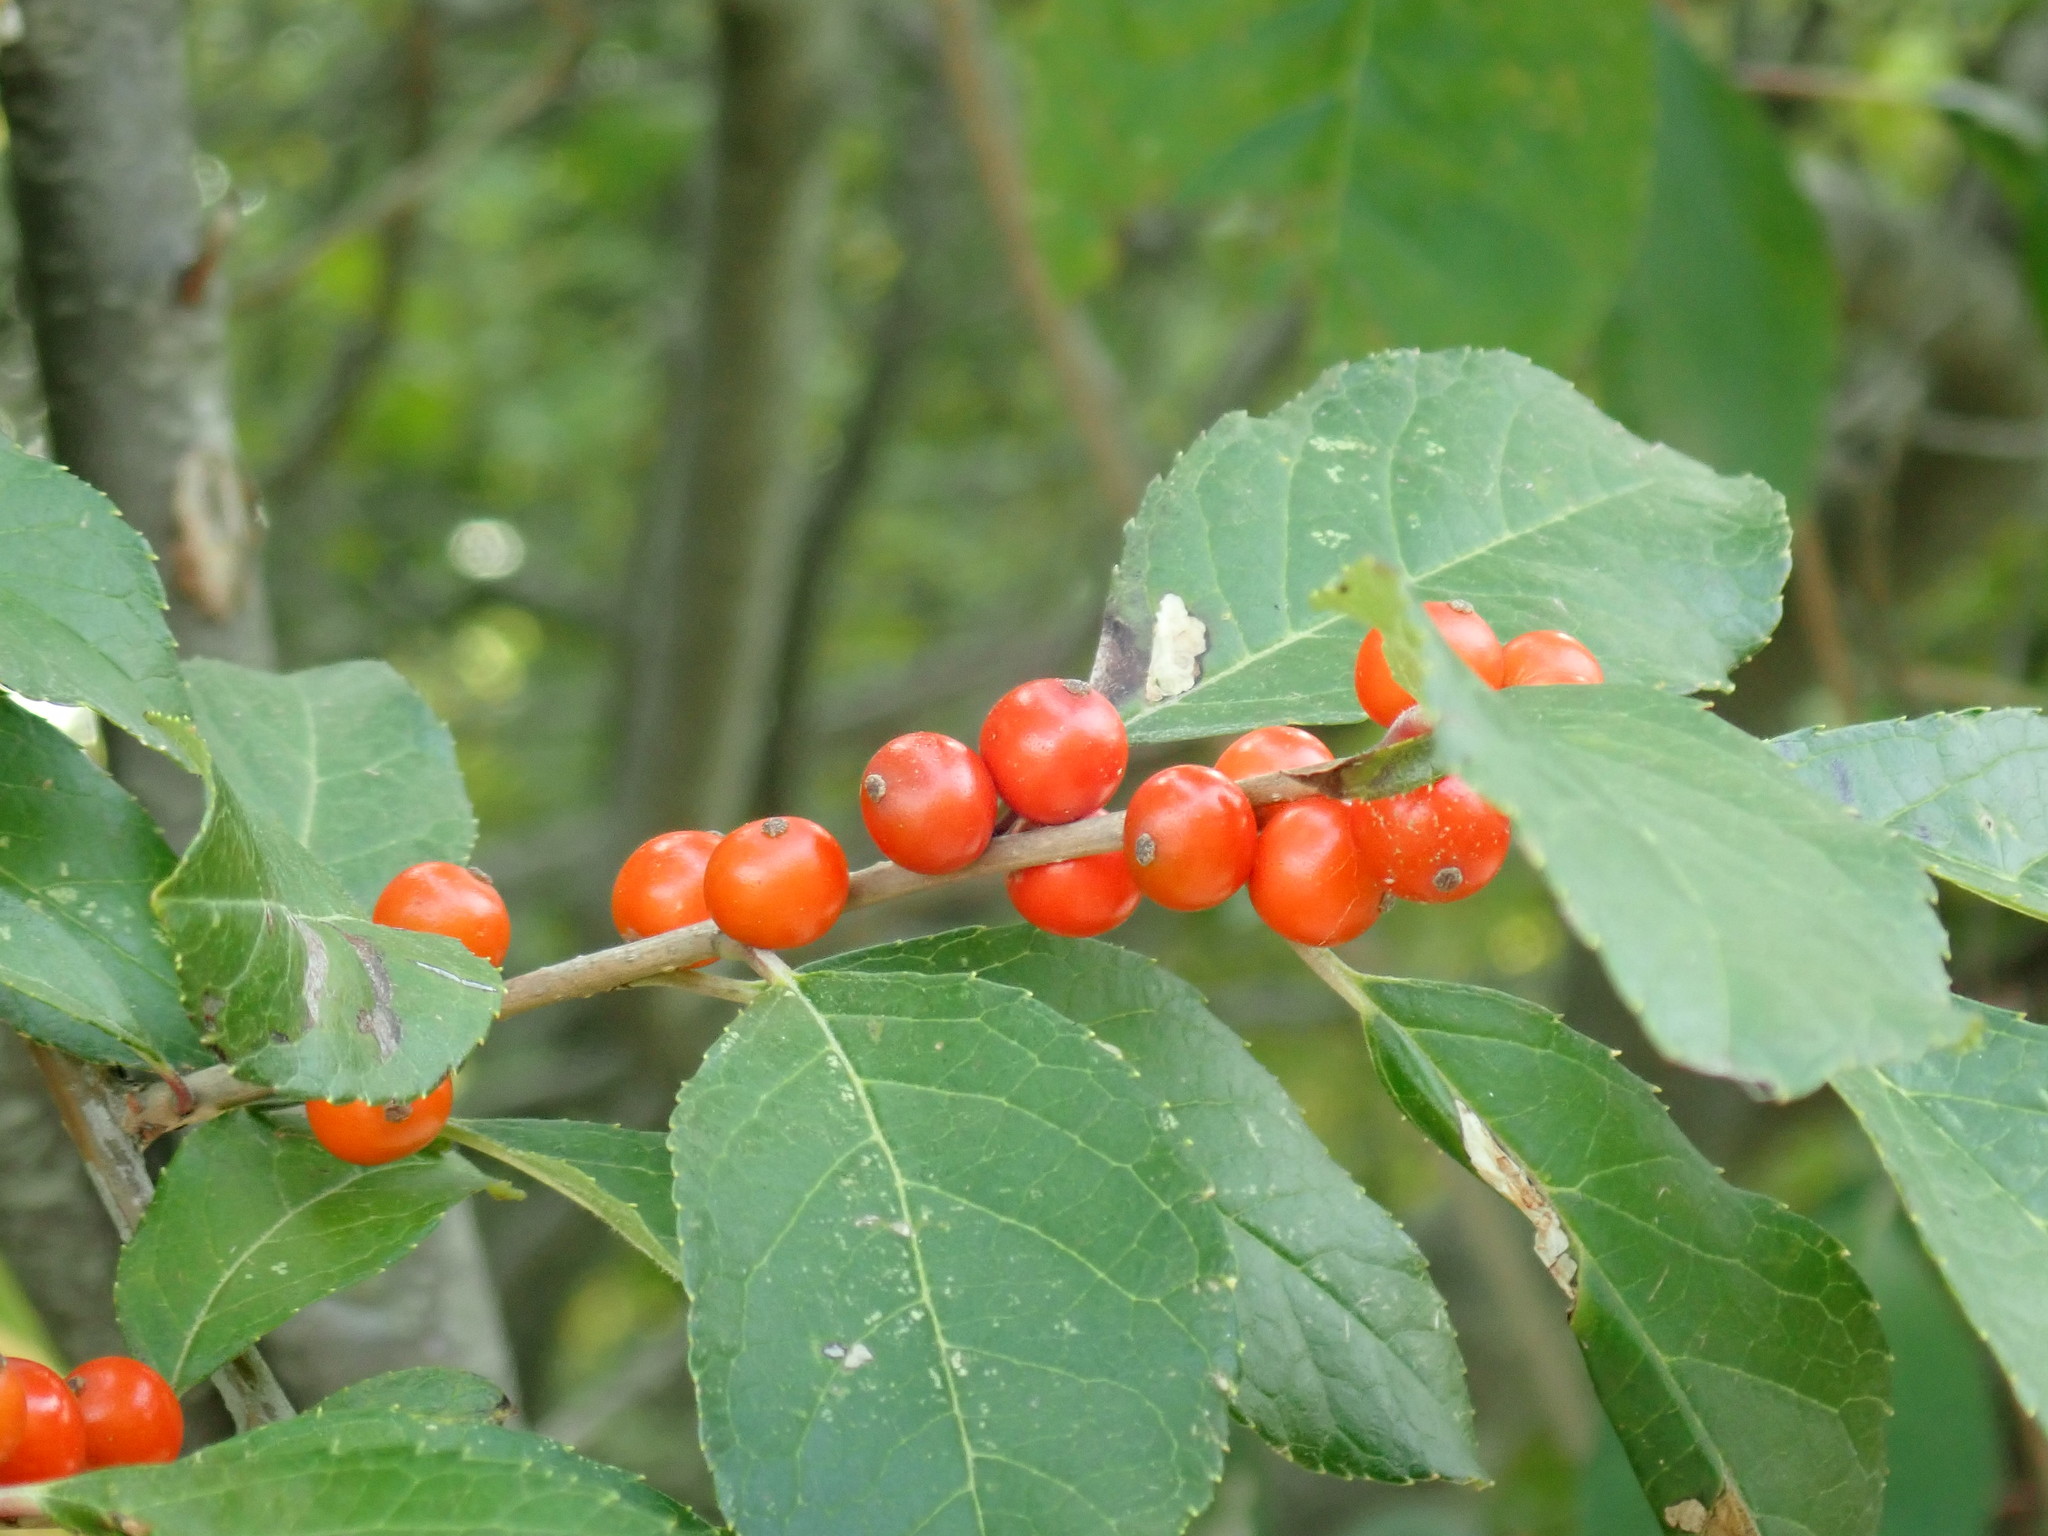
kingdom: Plantae
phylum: Tracheophyta
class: Magnoliopsida
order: Aquifoliales
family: Aquifoliaceae
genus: Ilex
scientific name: Ilex laevigata
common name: Smooth winterberry
